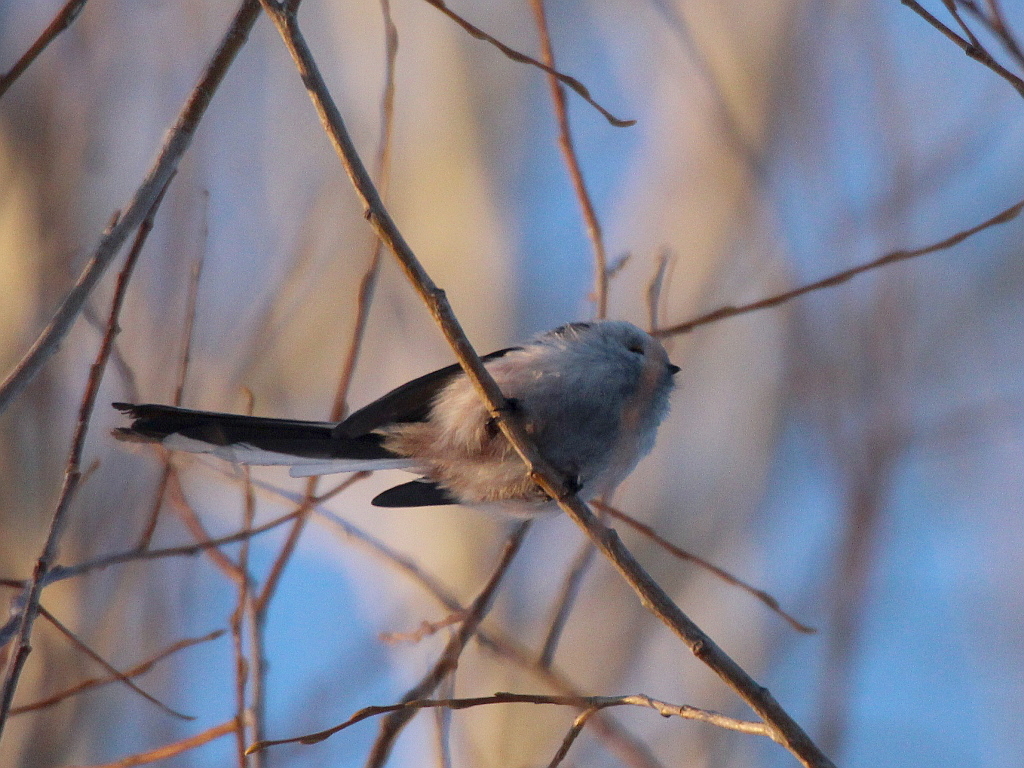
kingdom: Animalia
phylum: Chordata
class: Aves
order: Passeriformes
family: Aegithalidae
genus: Aegithalos
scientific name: Aegithalos caudatus
